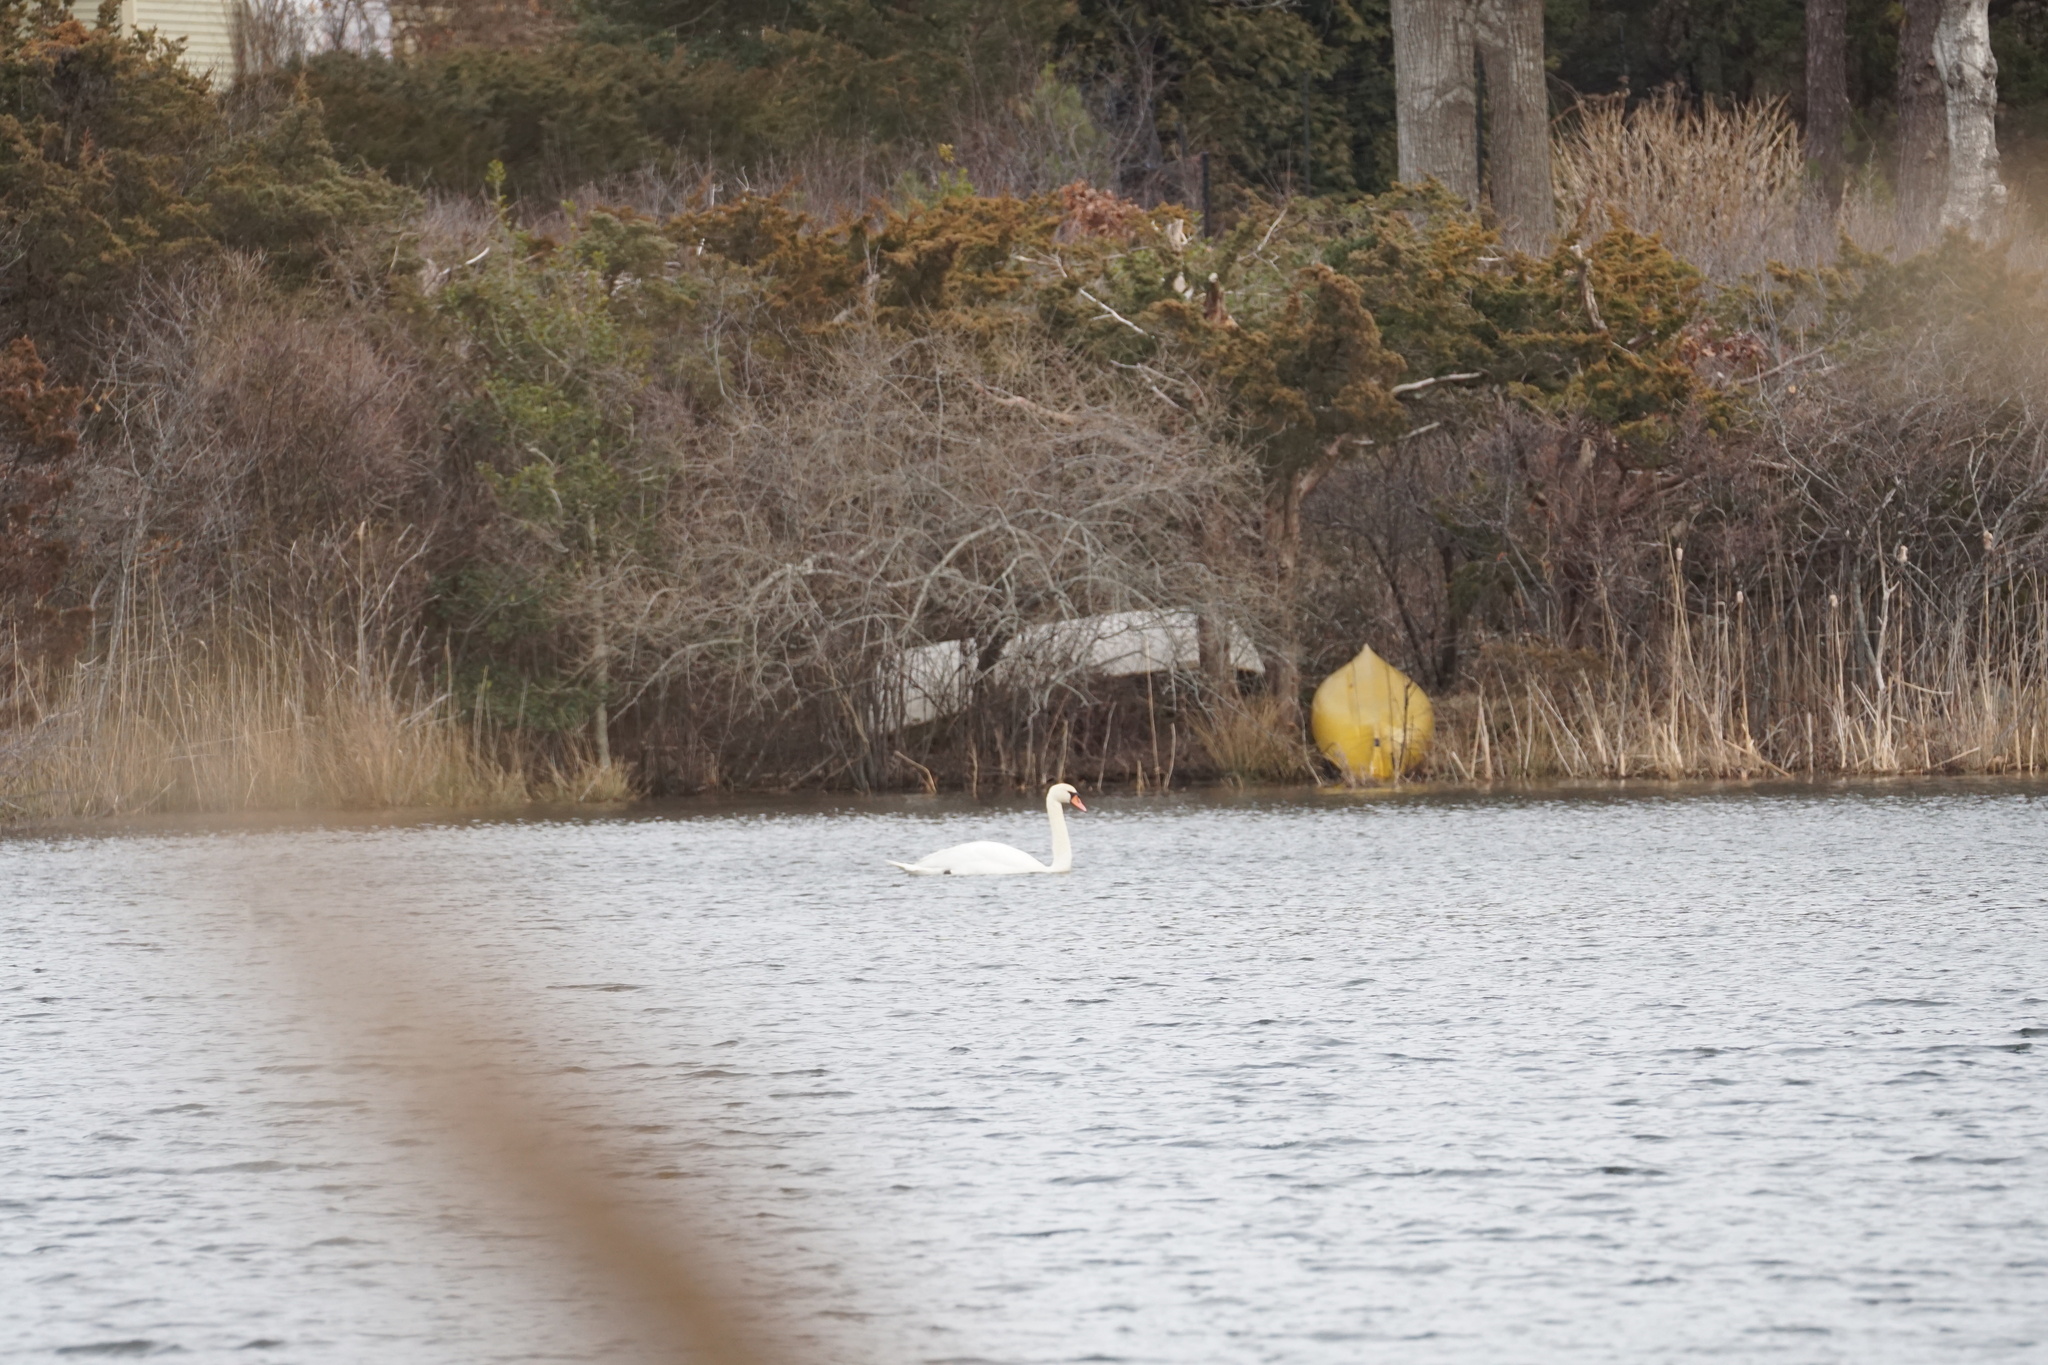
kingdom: Animalia
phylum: Chordata
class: Aves
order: Anseriformes
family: Anatidae
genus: Cygnus
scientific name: Cygnus olor
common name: Mute swan
